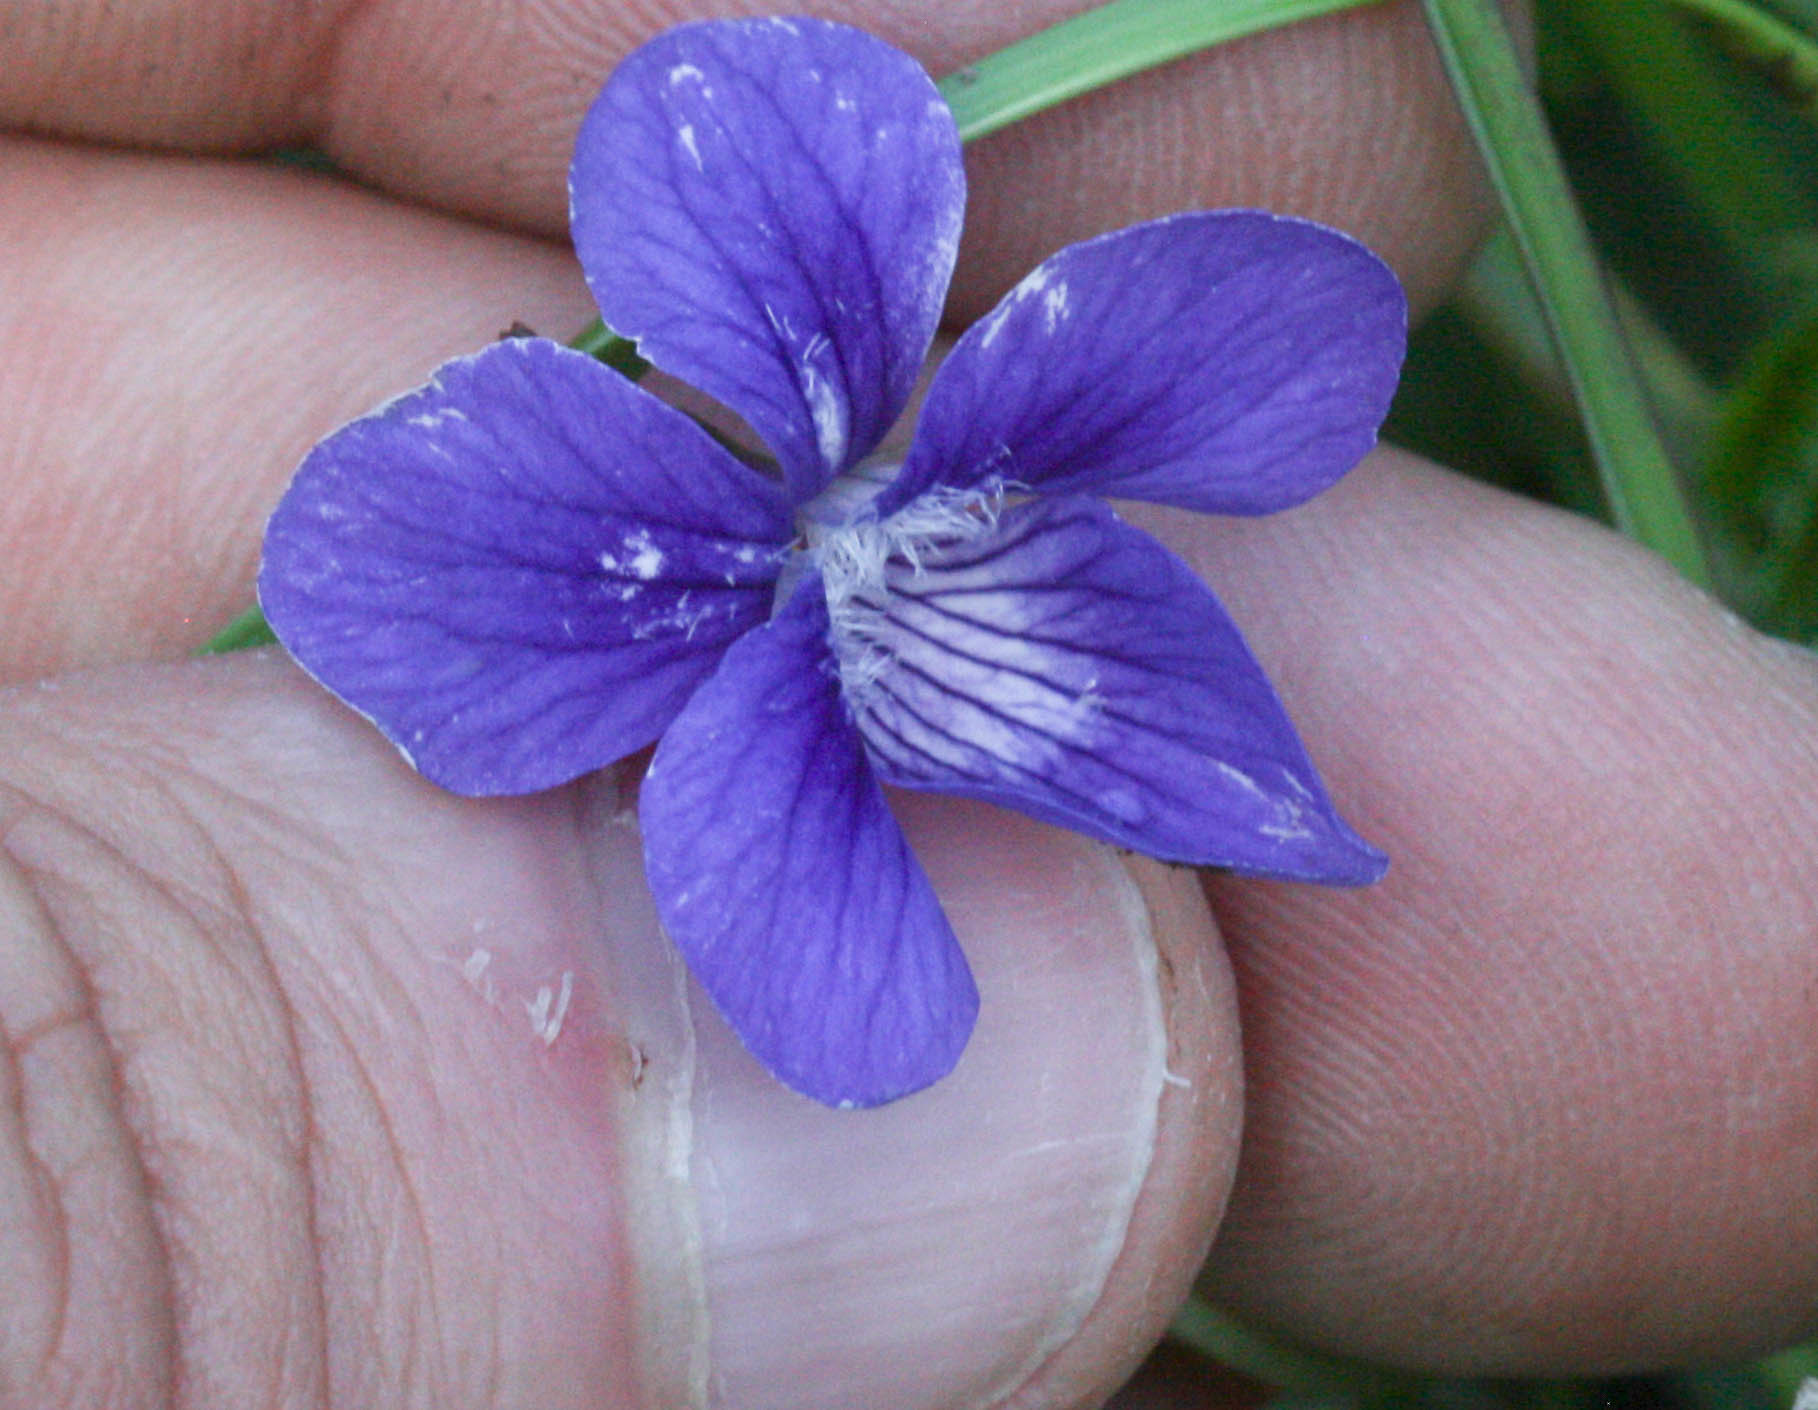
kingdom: Plantae
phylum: Tracheophyta
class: Magnoliopsida
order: Malpighiales
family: Violaceae
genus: Viola
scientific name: Viola adunca
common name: Sand violet
